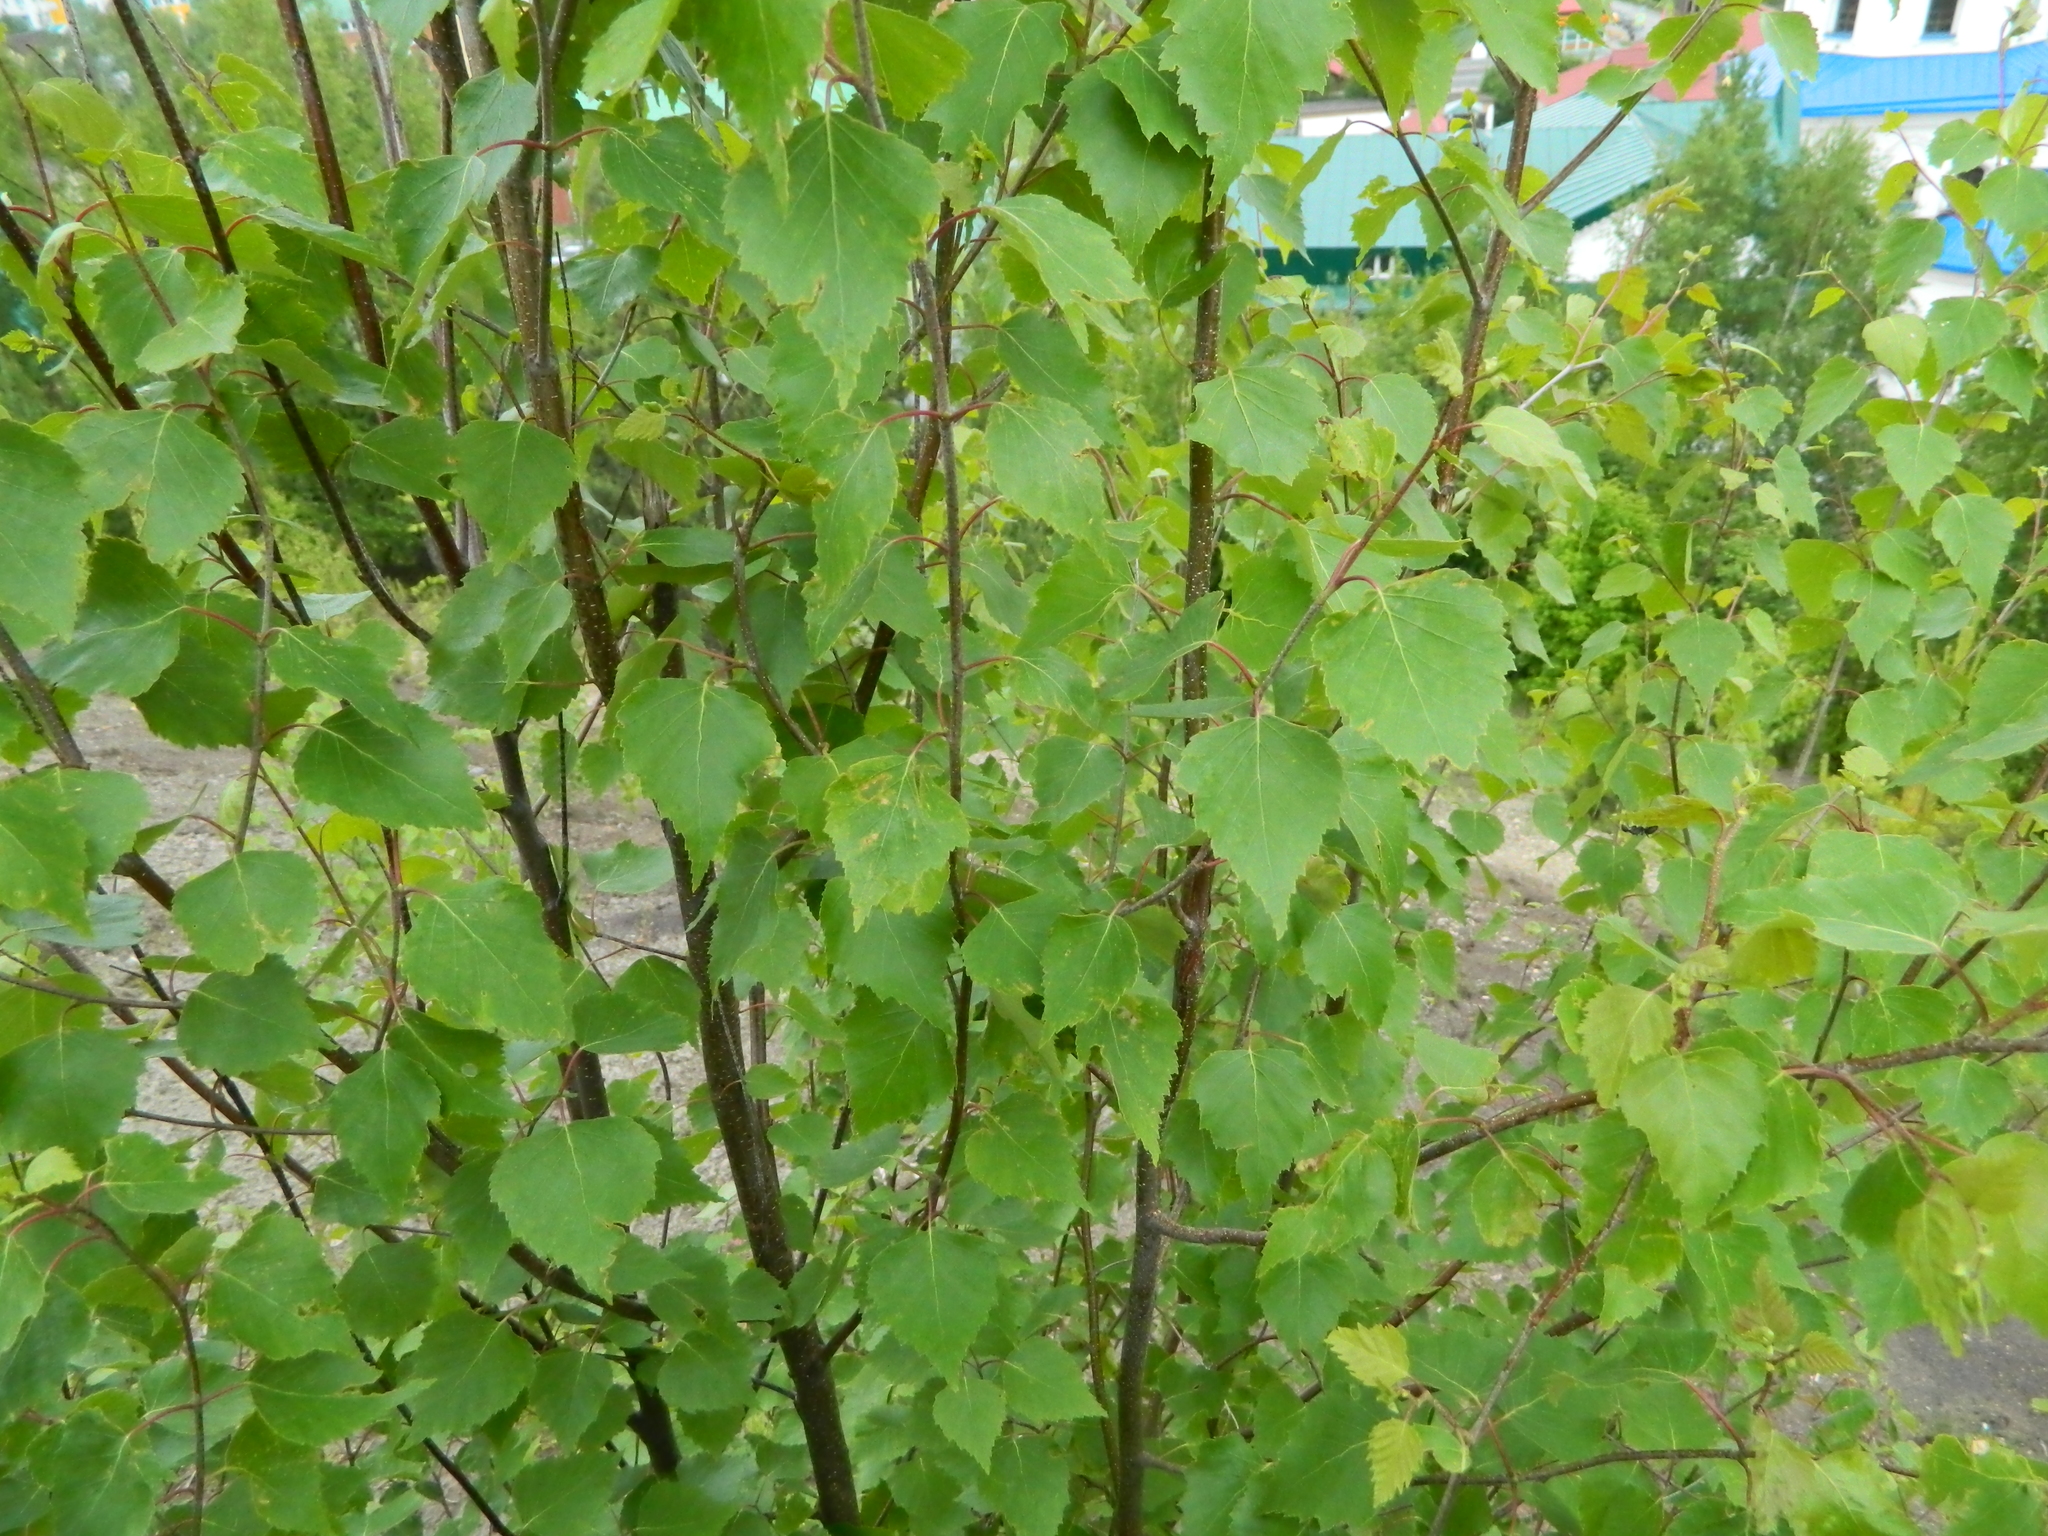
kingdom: Plantae
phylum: Tracheophyta
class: Magnoliopsida
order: Fagales
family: Betulaceae
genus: Betula
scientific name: Betula pendula
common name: Silver birch
